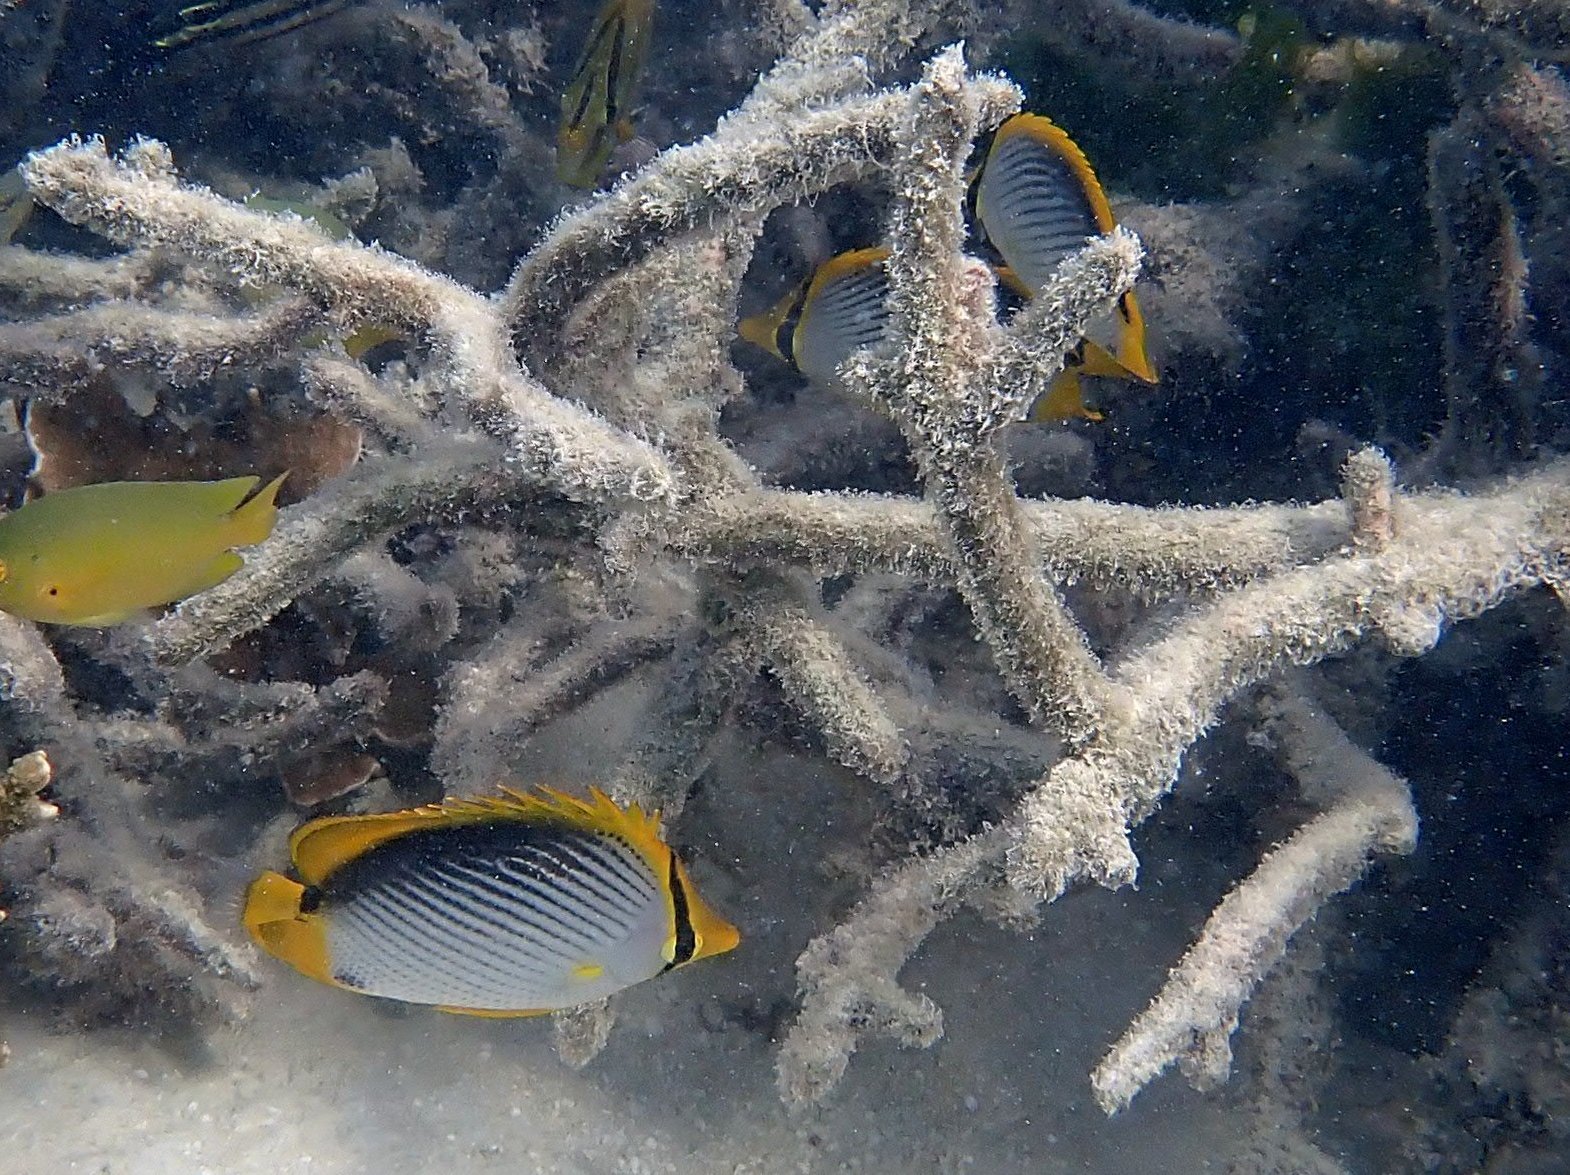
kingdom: Animalia
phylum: Chordata
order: Perciformes
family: Chaetodontidae
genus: Chaetodon
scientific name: Chaetodon melannotus
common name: Blackback butterflyfish
